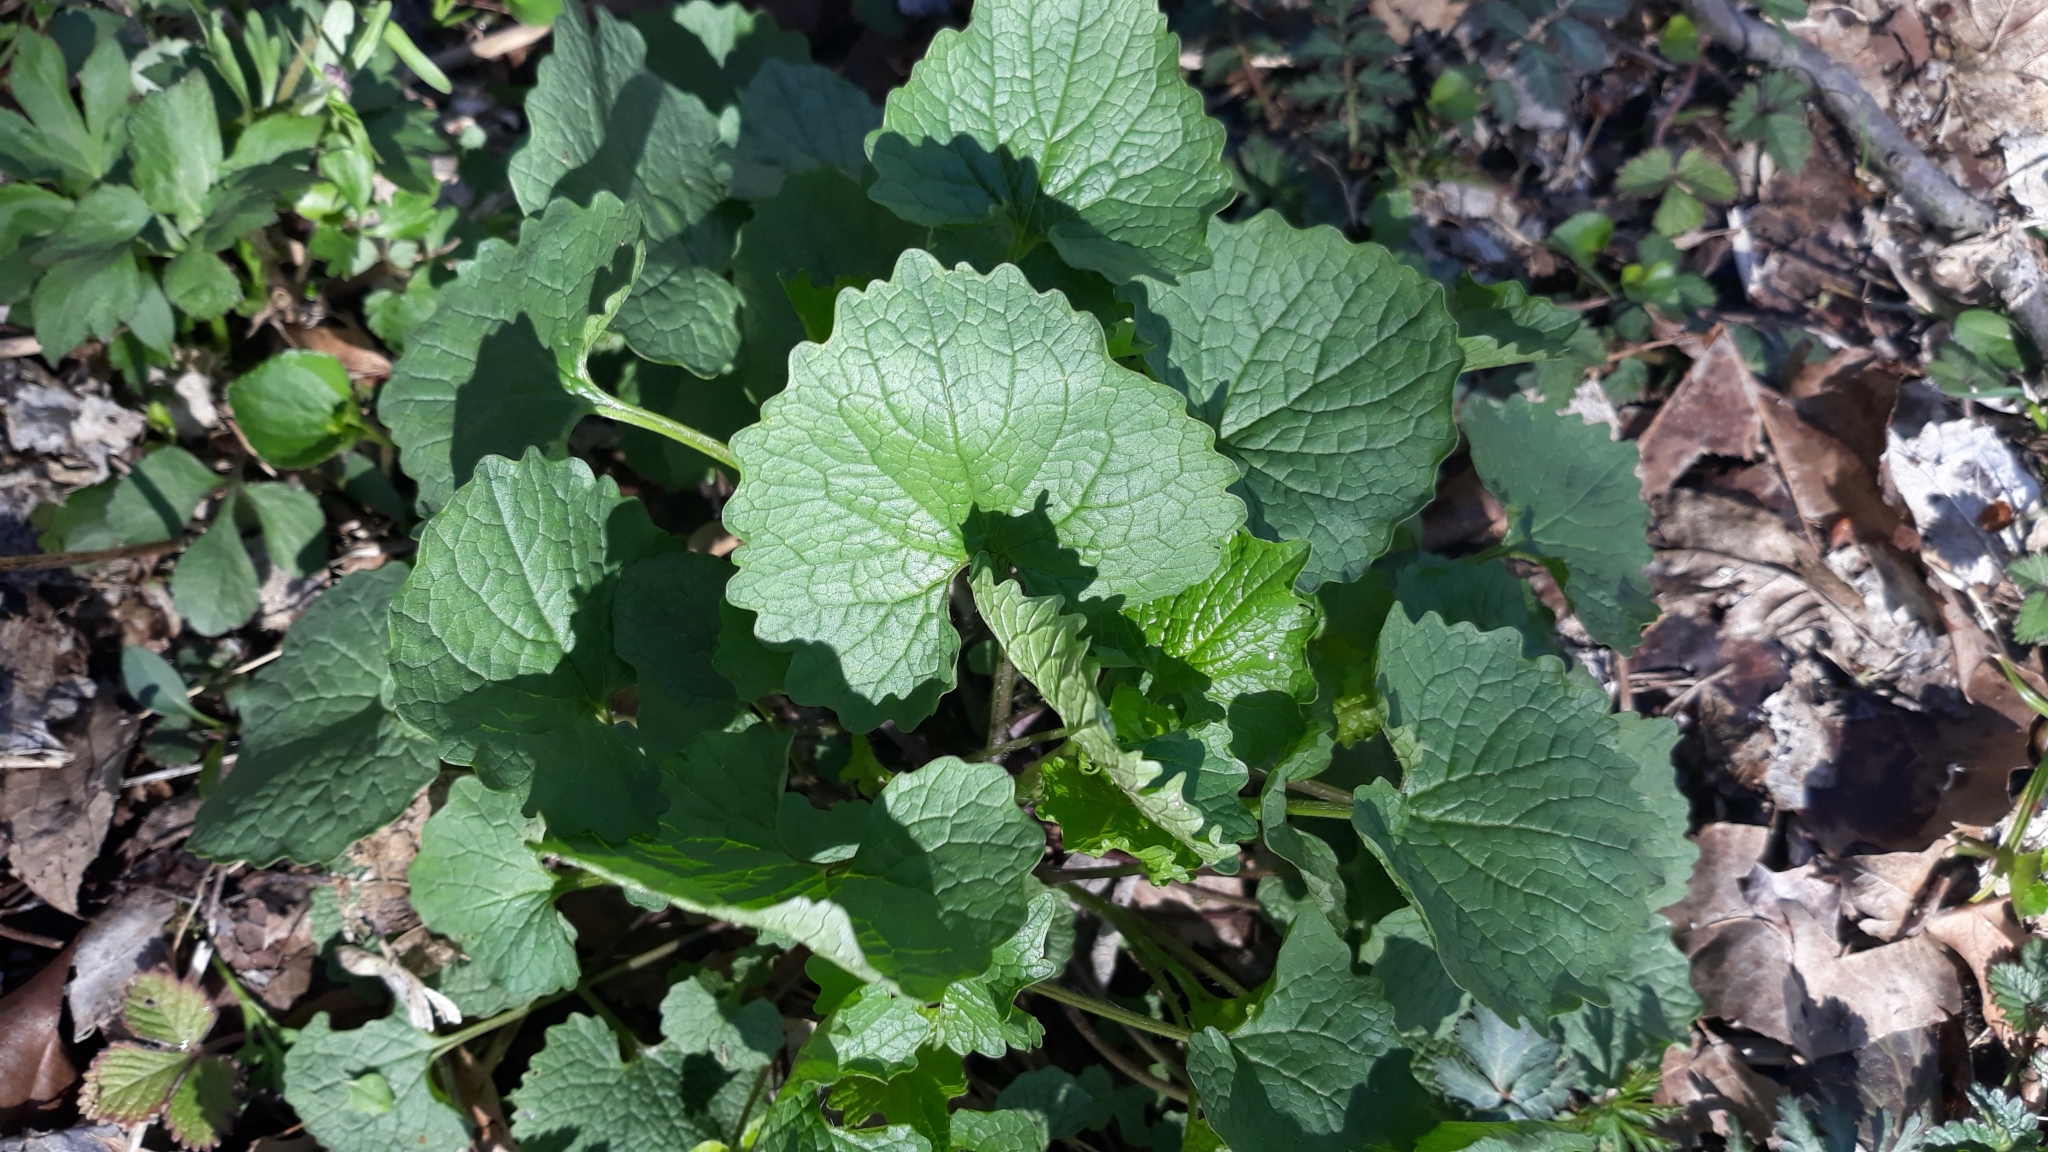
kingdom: Plantae
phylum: Tracheophyta
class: Magnoliopsida
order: Brassicales
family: Brassicaceae
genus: Alliaria
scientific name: Alliaria petiolata
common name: Garlic mustard
